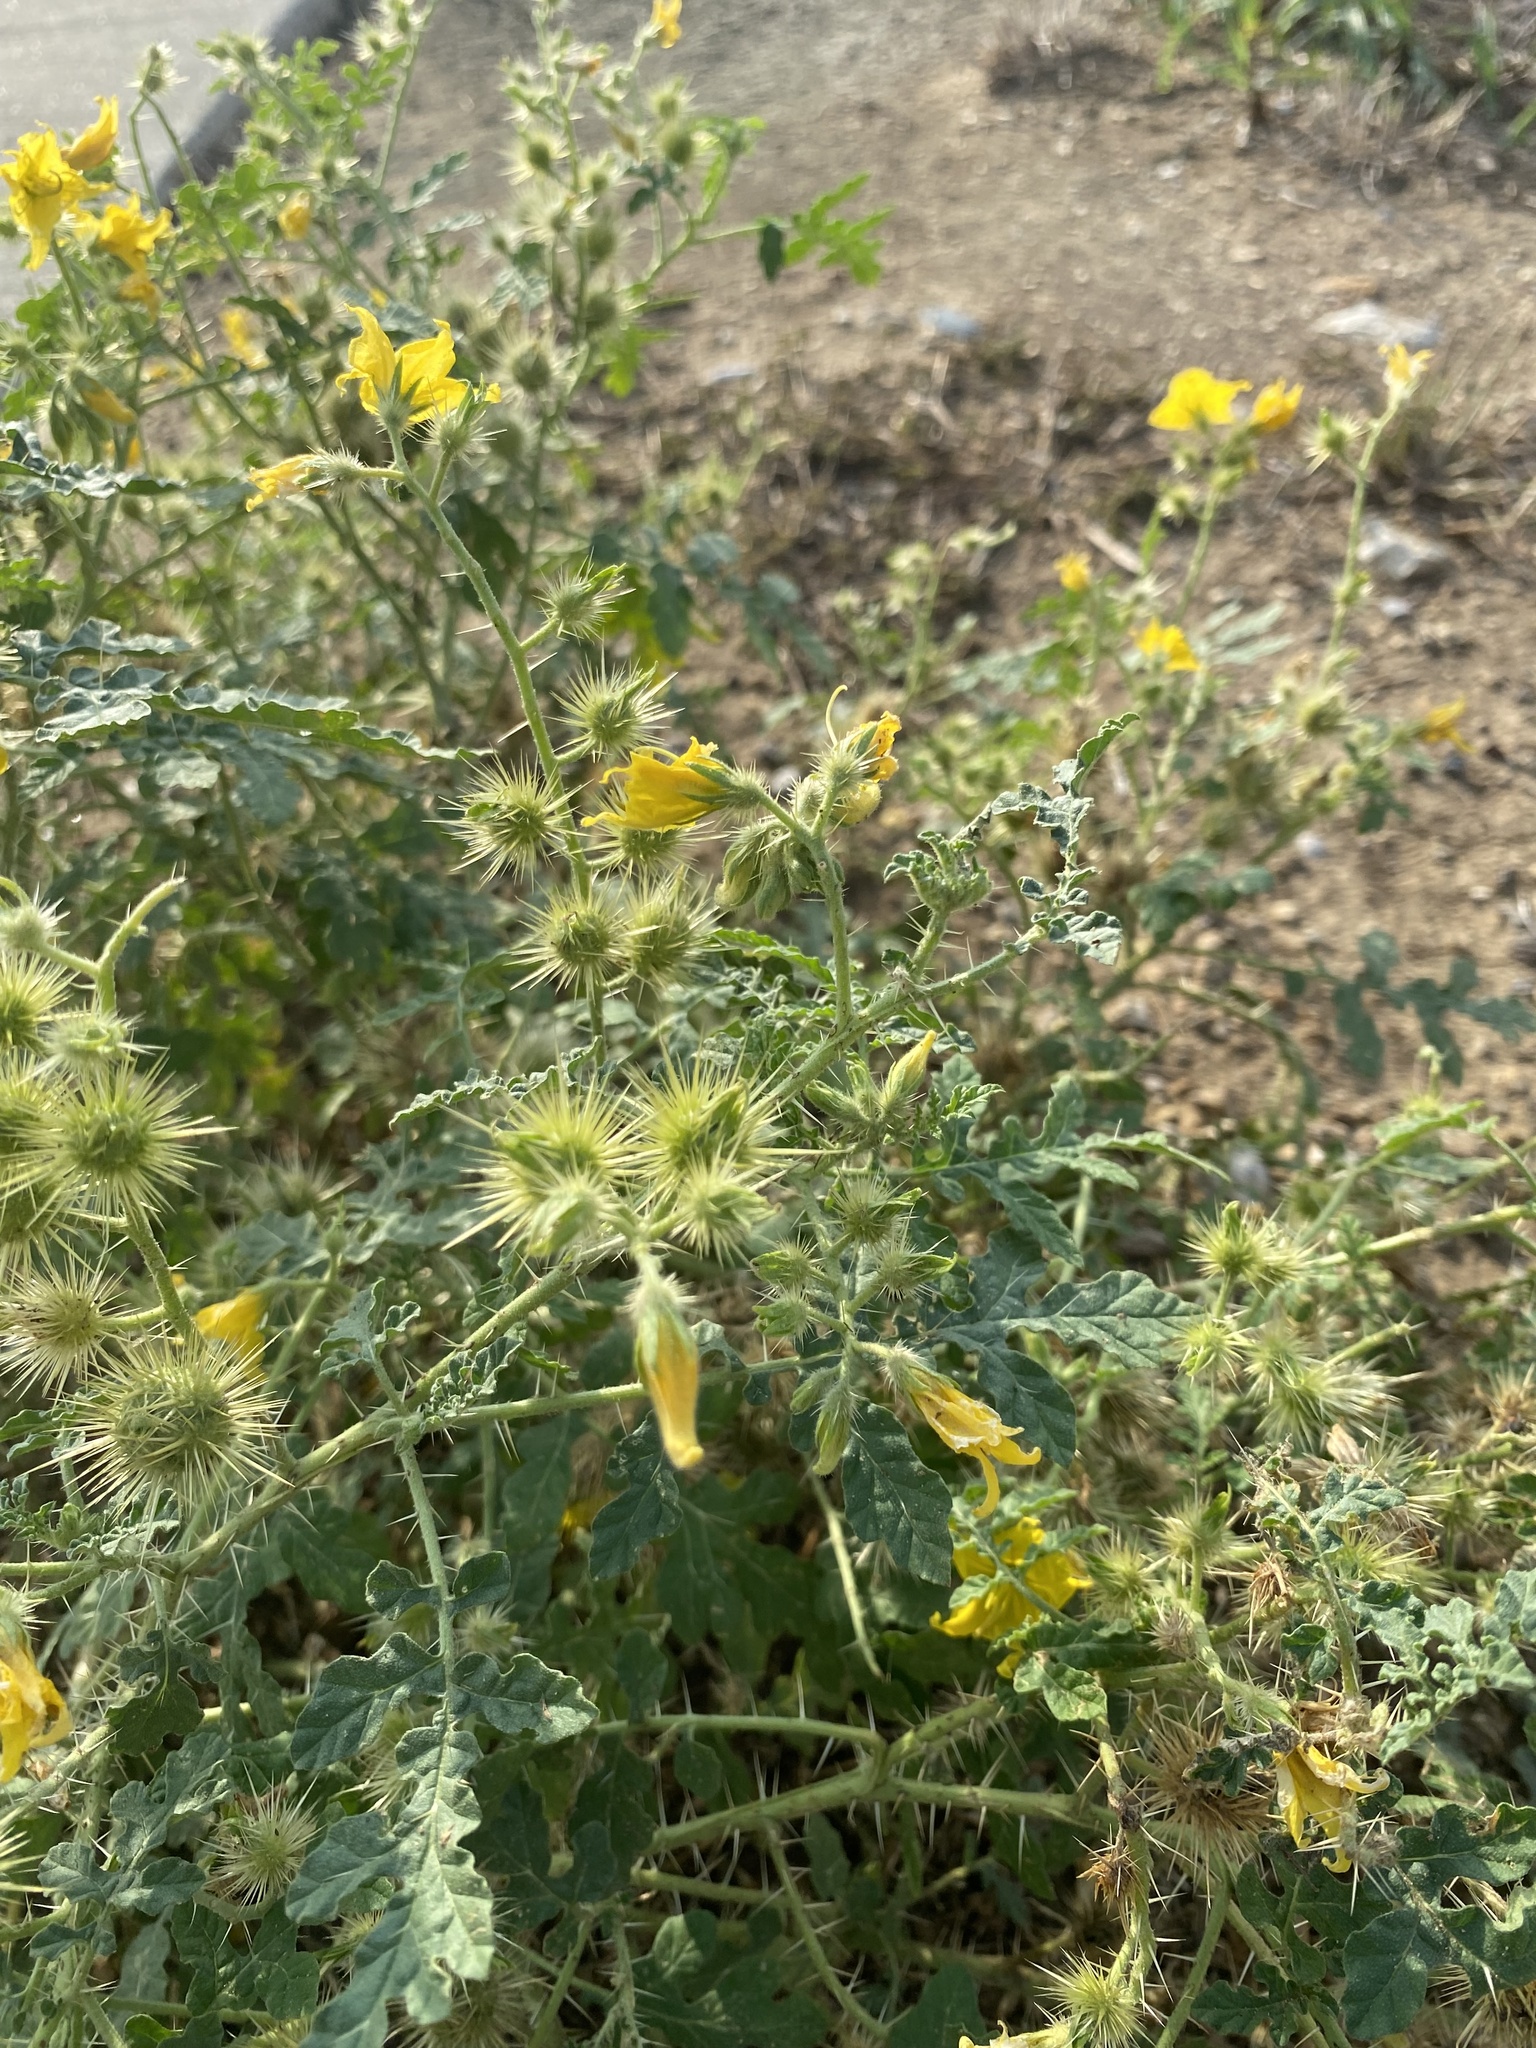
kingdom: Plantae
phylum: Tracheophyta
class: Magnoliopsida
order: Solanales
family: Solanaceae
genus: Solanum
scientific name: Solanum angustifolium
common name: Buffalobur nightshade
